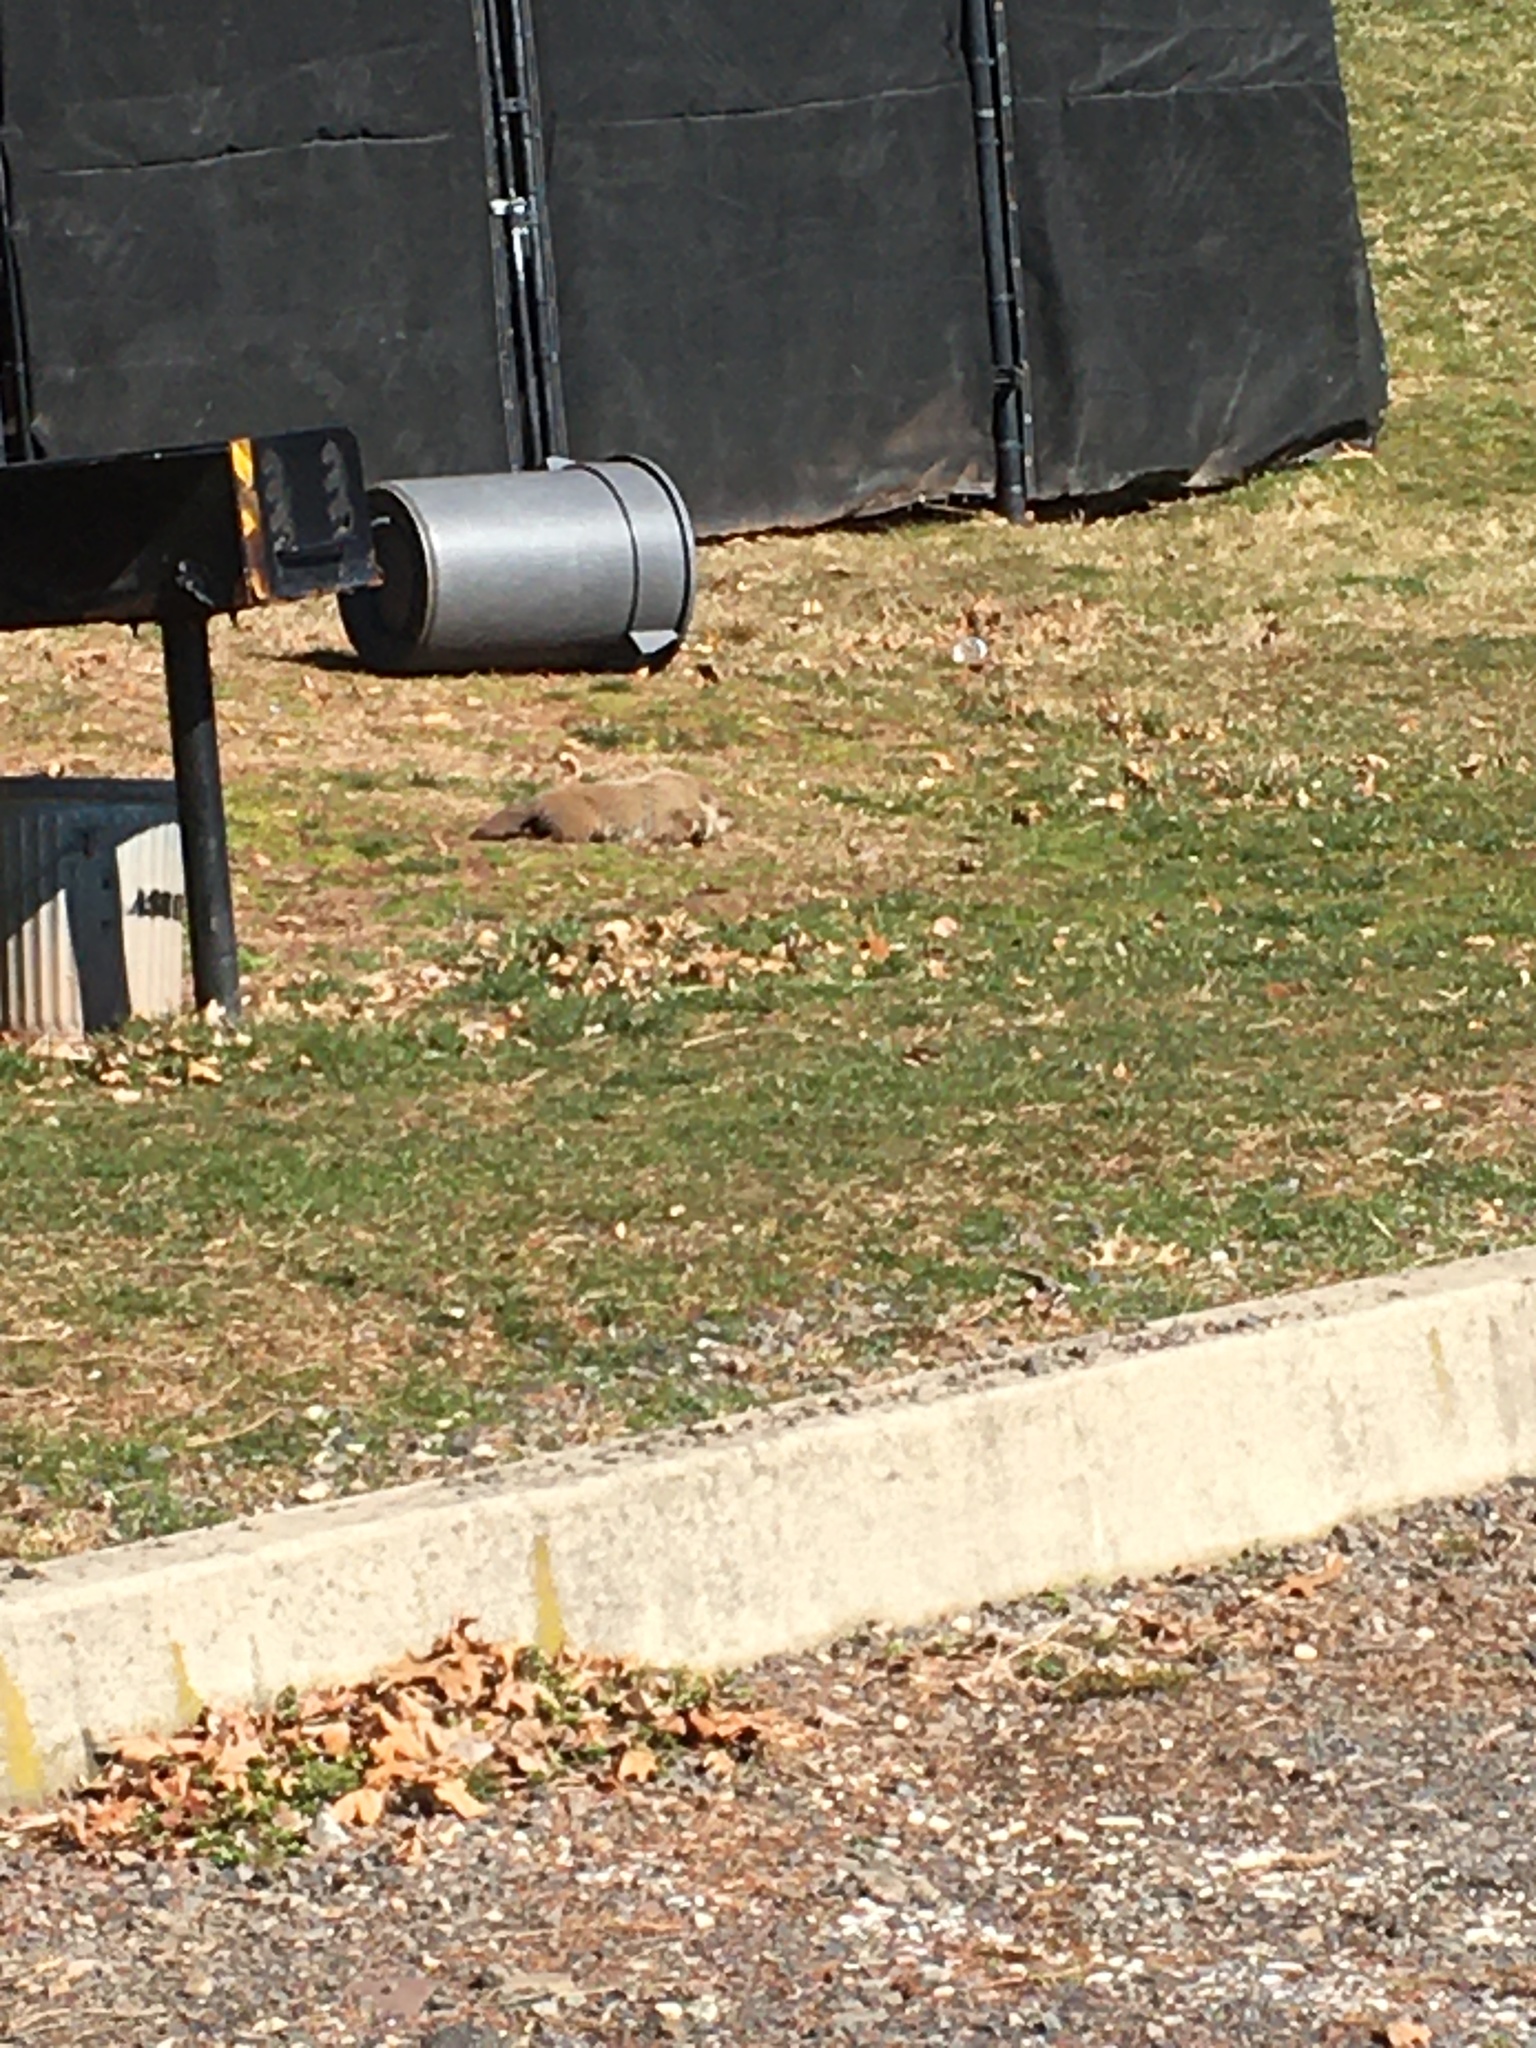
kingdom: Animalia
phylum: Chordata
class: Mammalia
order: Rodentia
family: Sciuridae
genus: Marmota
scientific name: Marmota monax
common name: Groundhog
